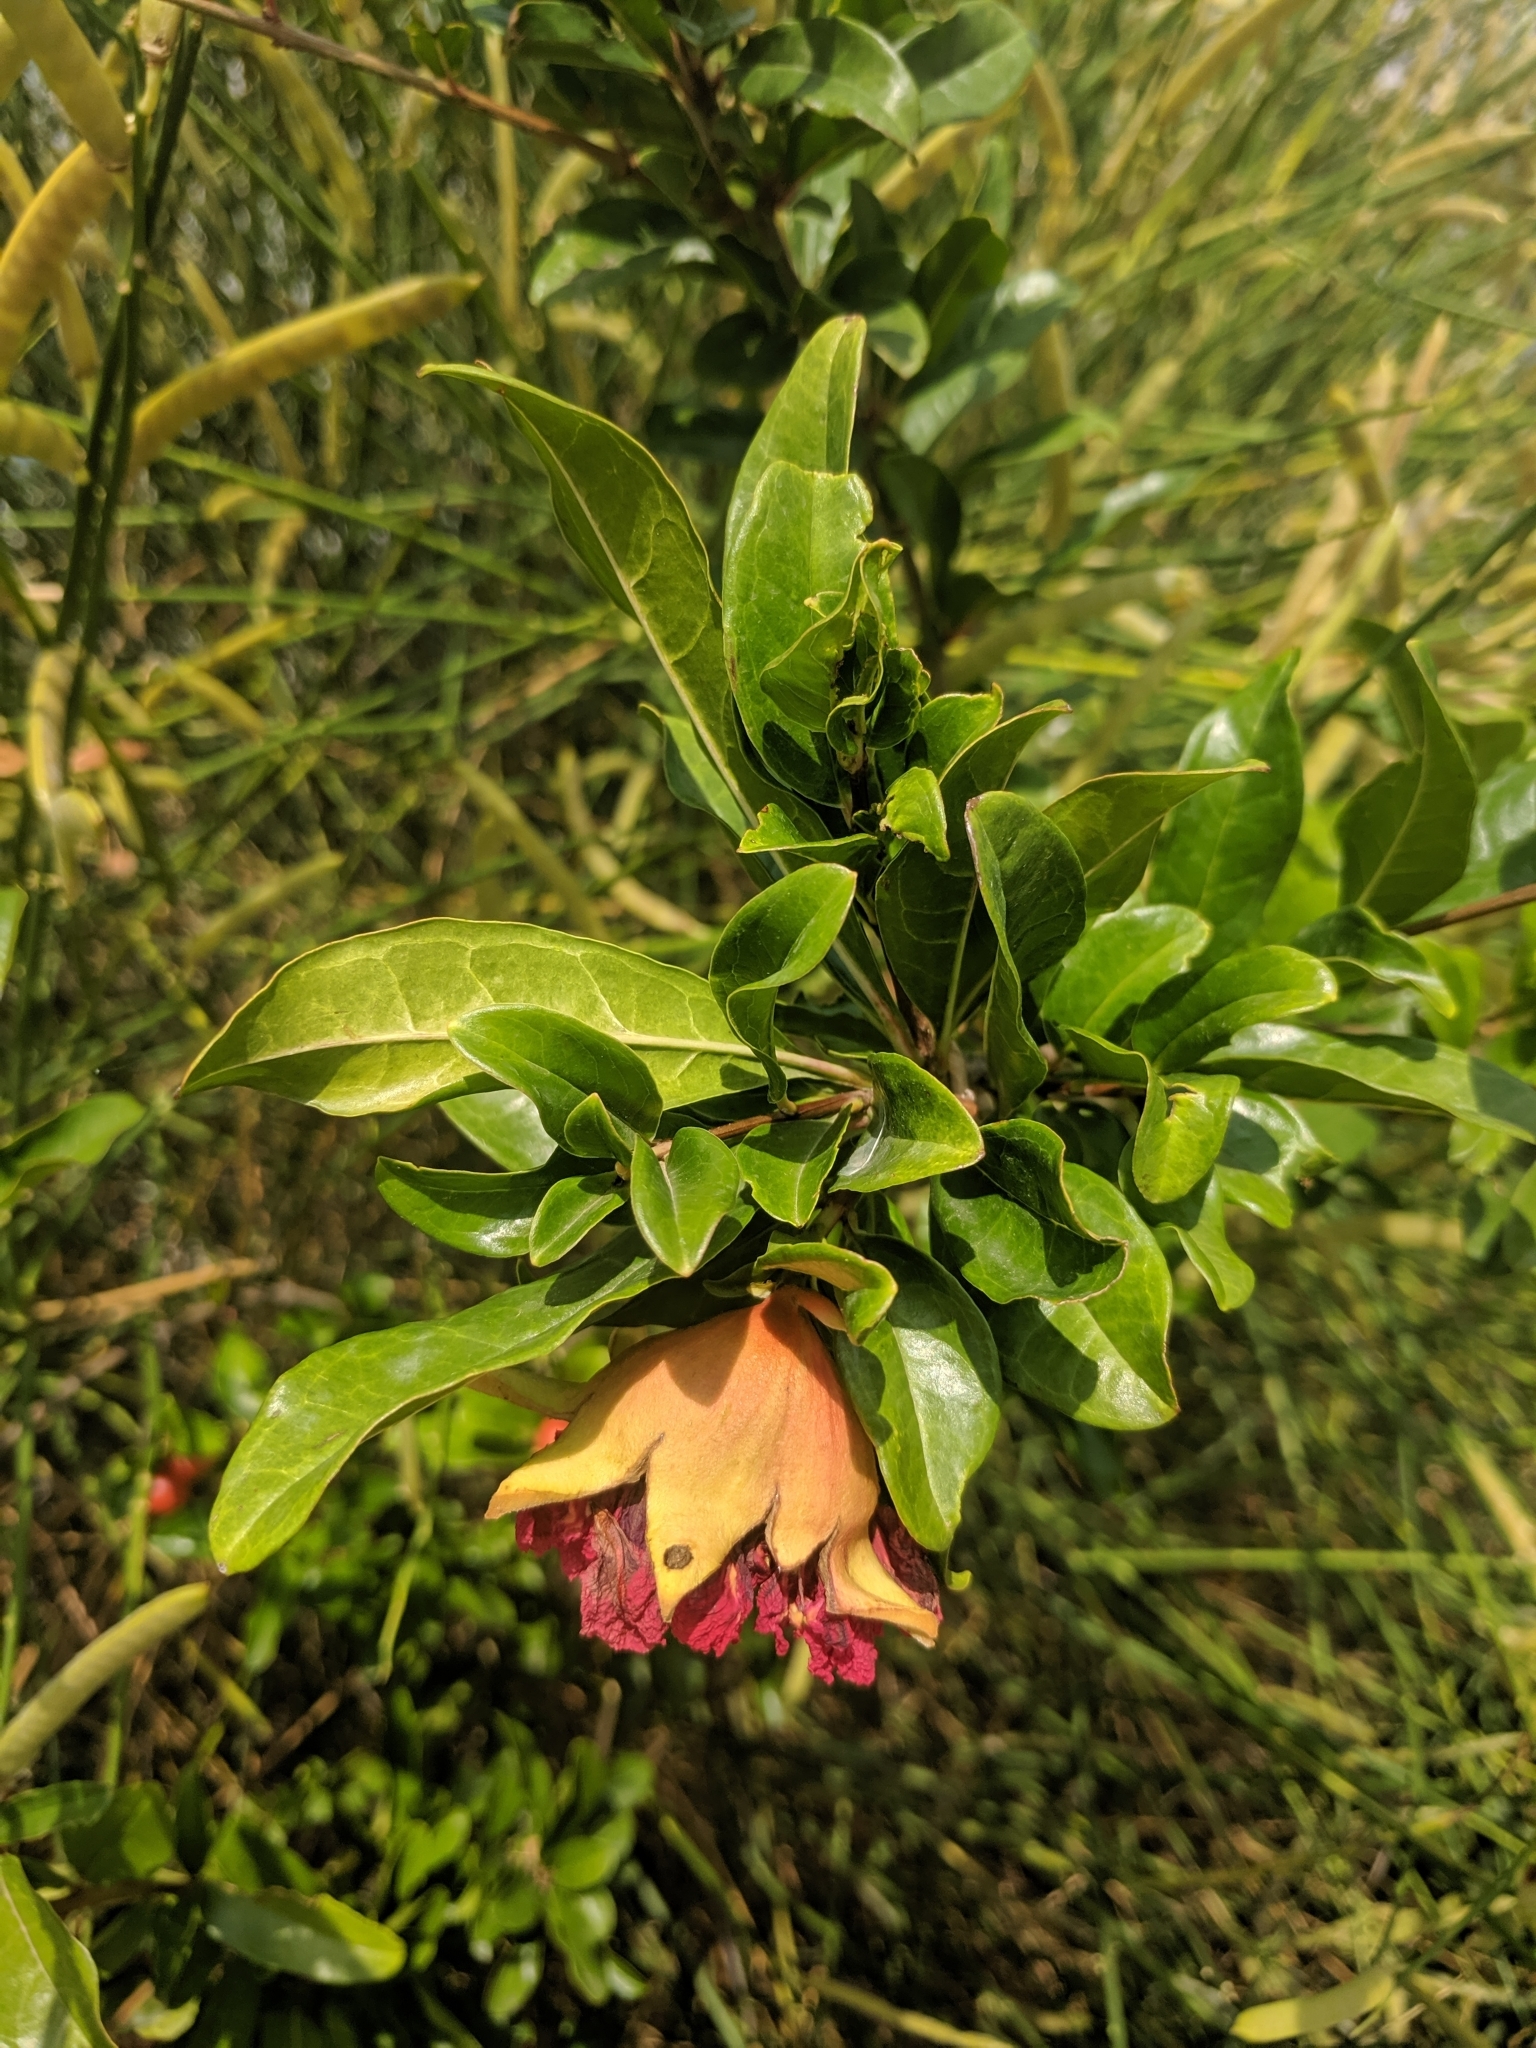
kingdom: Plantae
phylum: Tracheophyta
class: Magnoliopsida
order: Myrtales
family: Lythraceae
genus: Punica
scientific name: Punica granatum
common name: Pomegranate
